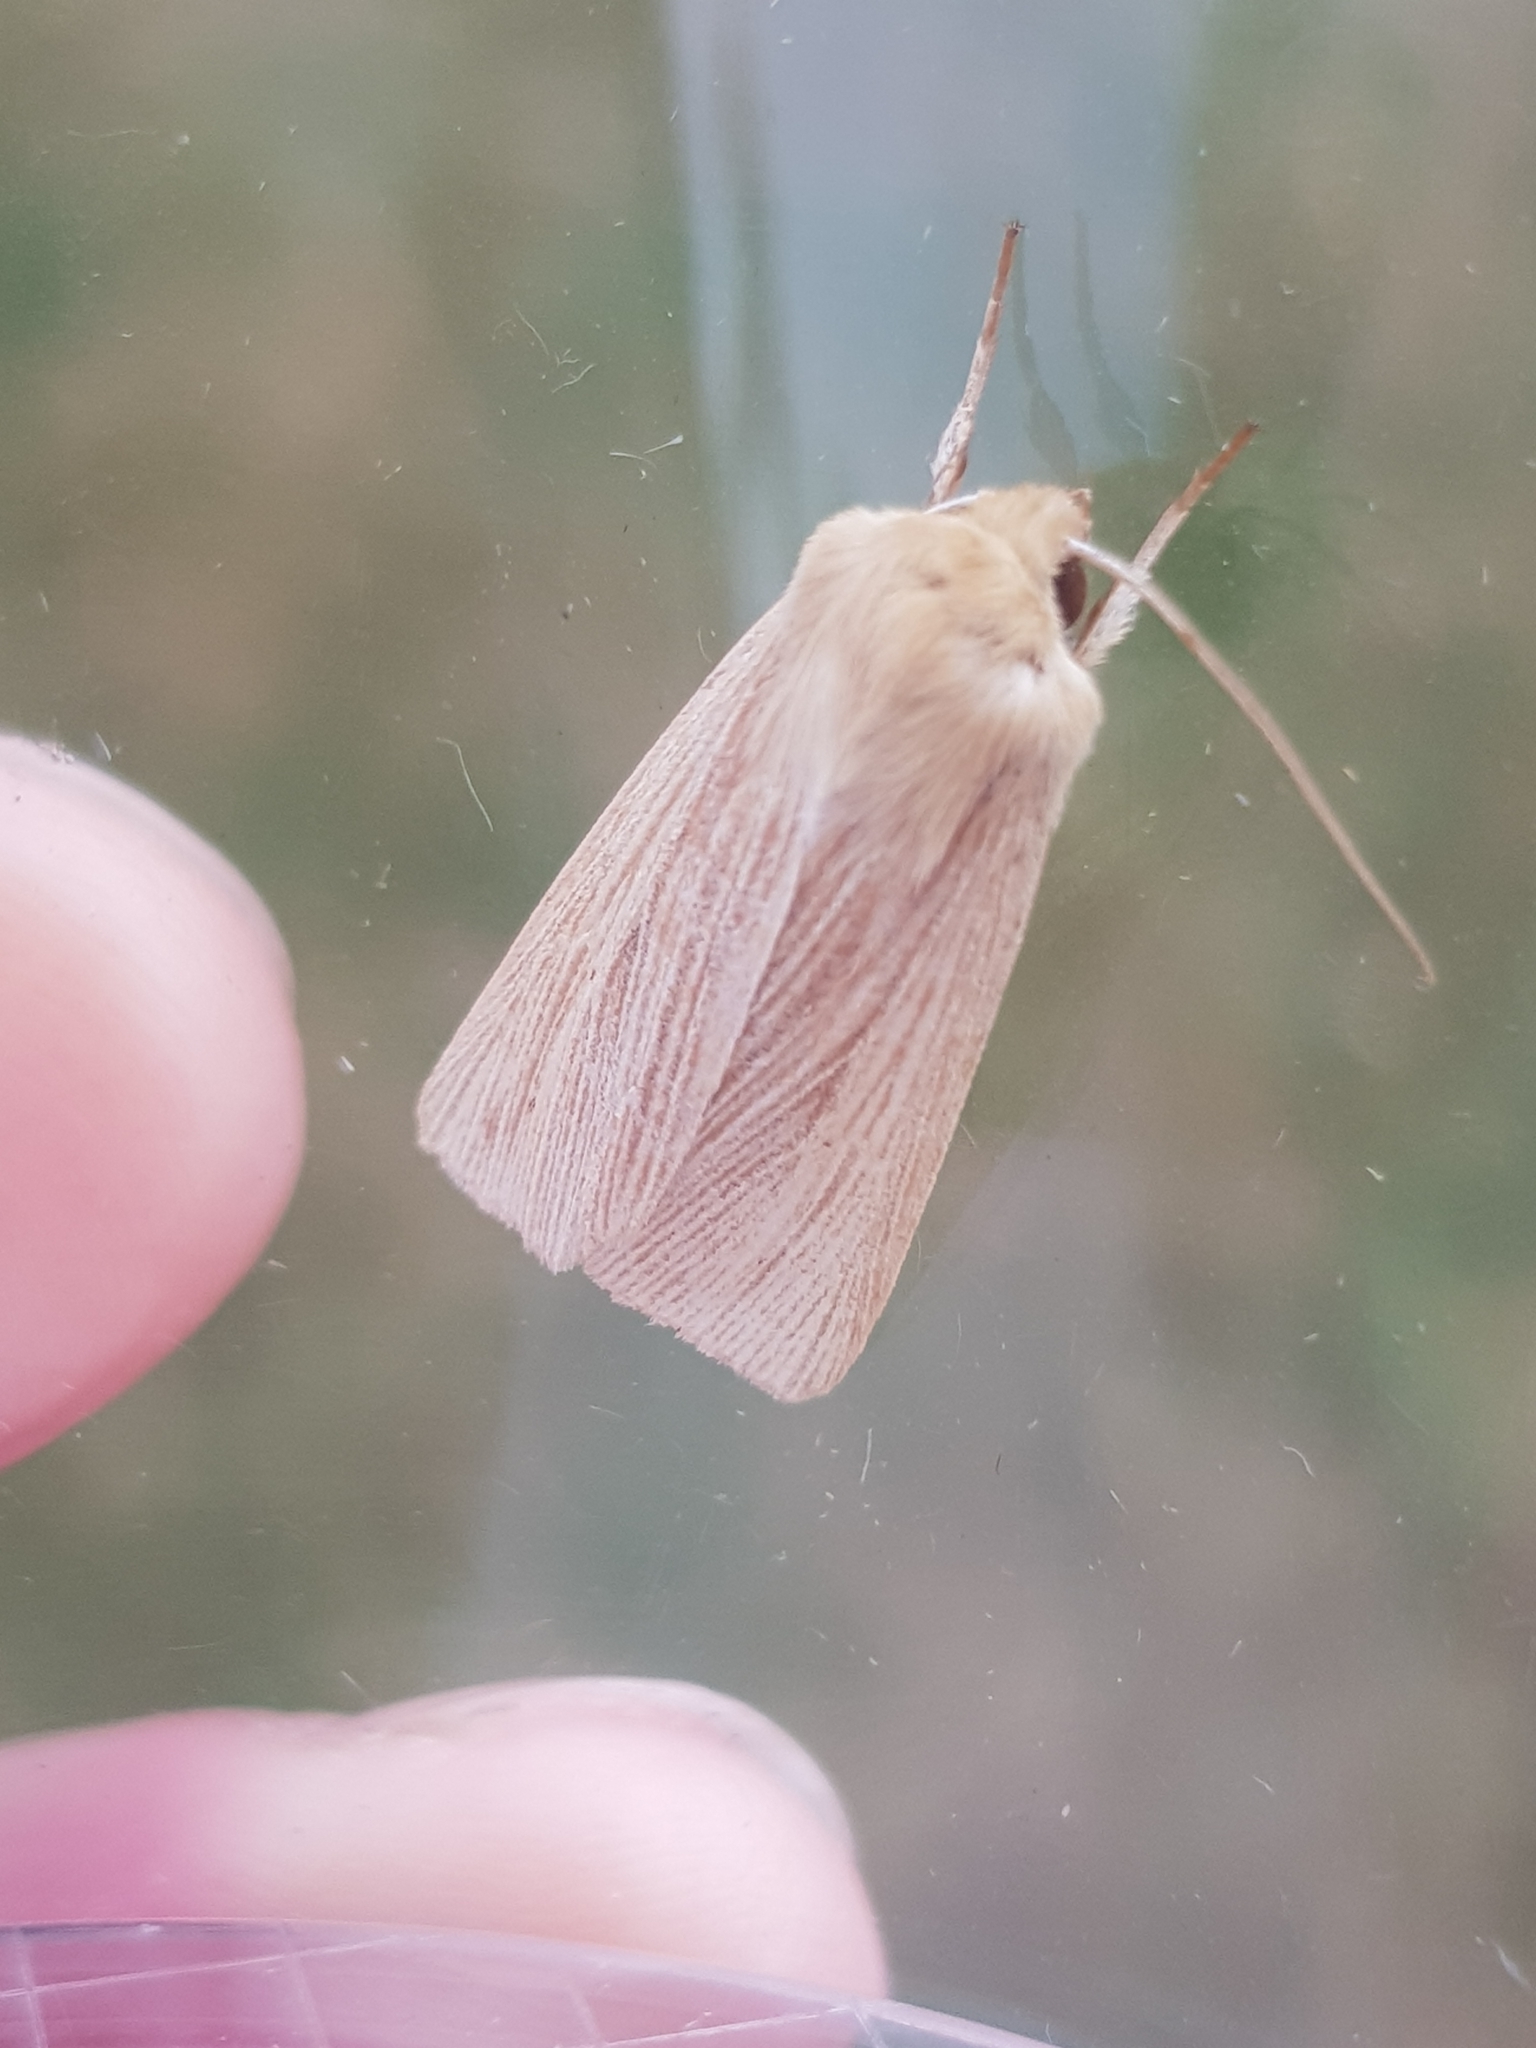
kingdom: Animalia
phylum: Arthropoda
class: Insecta
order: Lepidoptera
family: Noctuidae
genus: Mythimna
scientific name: Mythimna pallens
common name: Common wainscot
